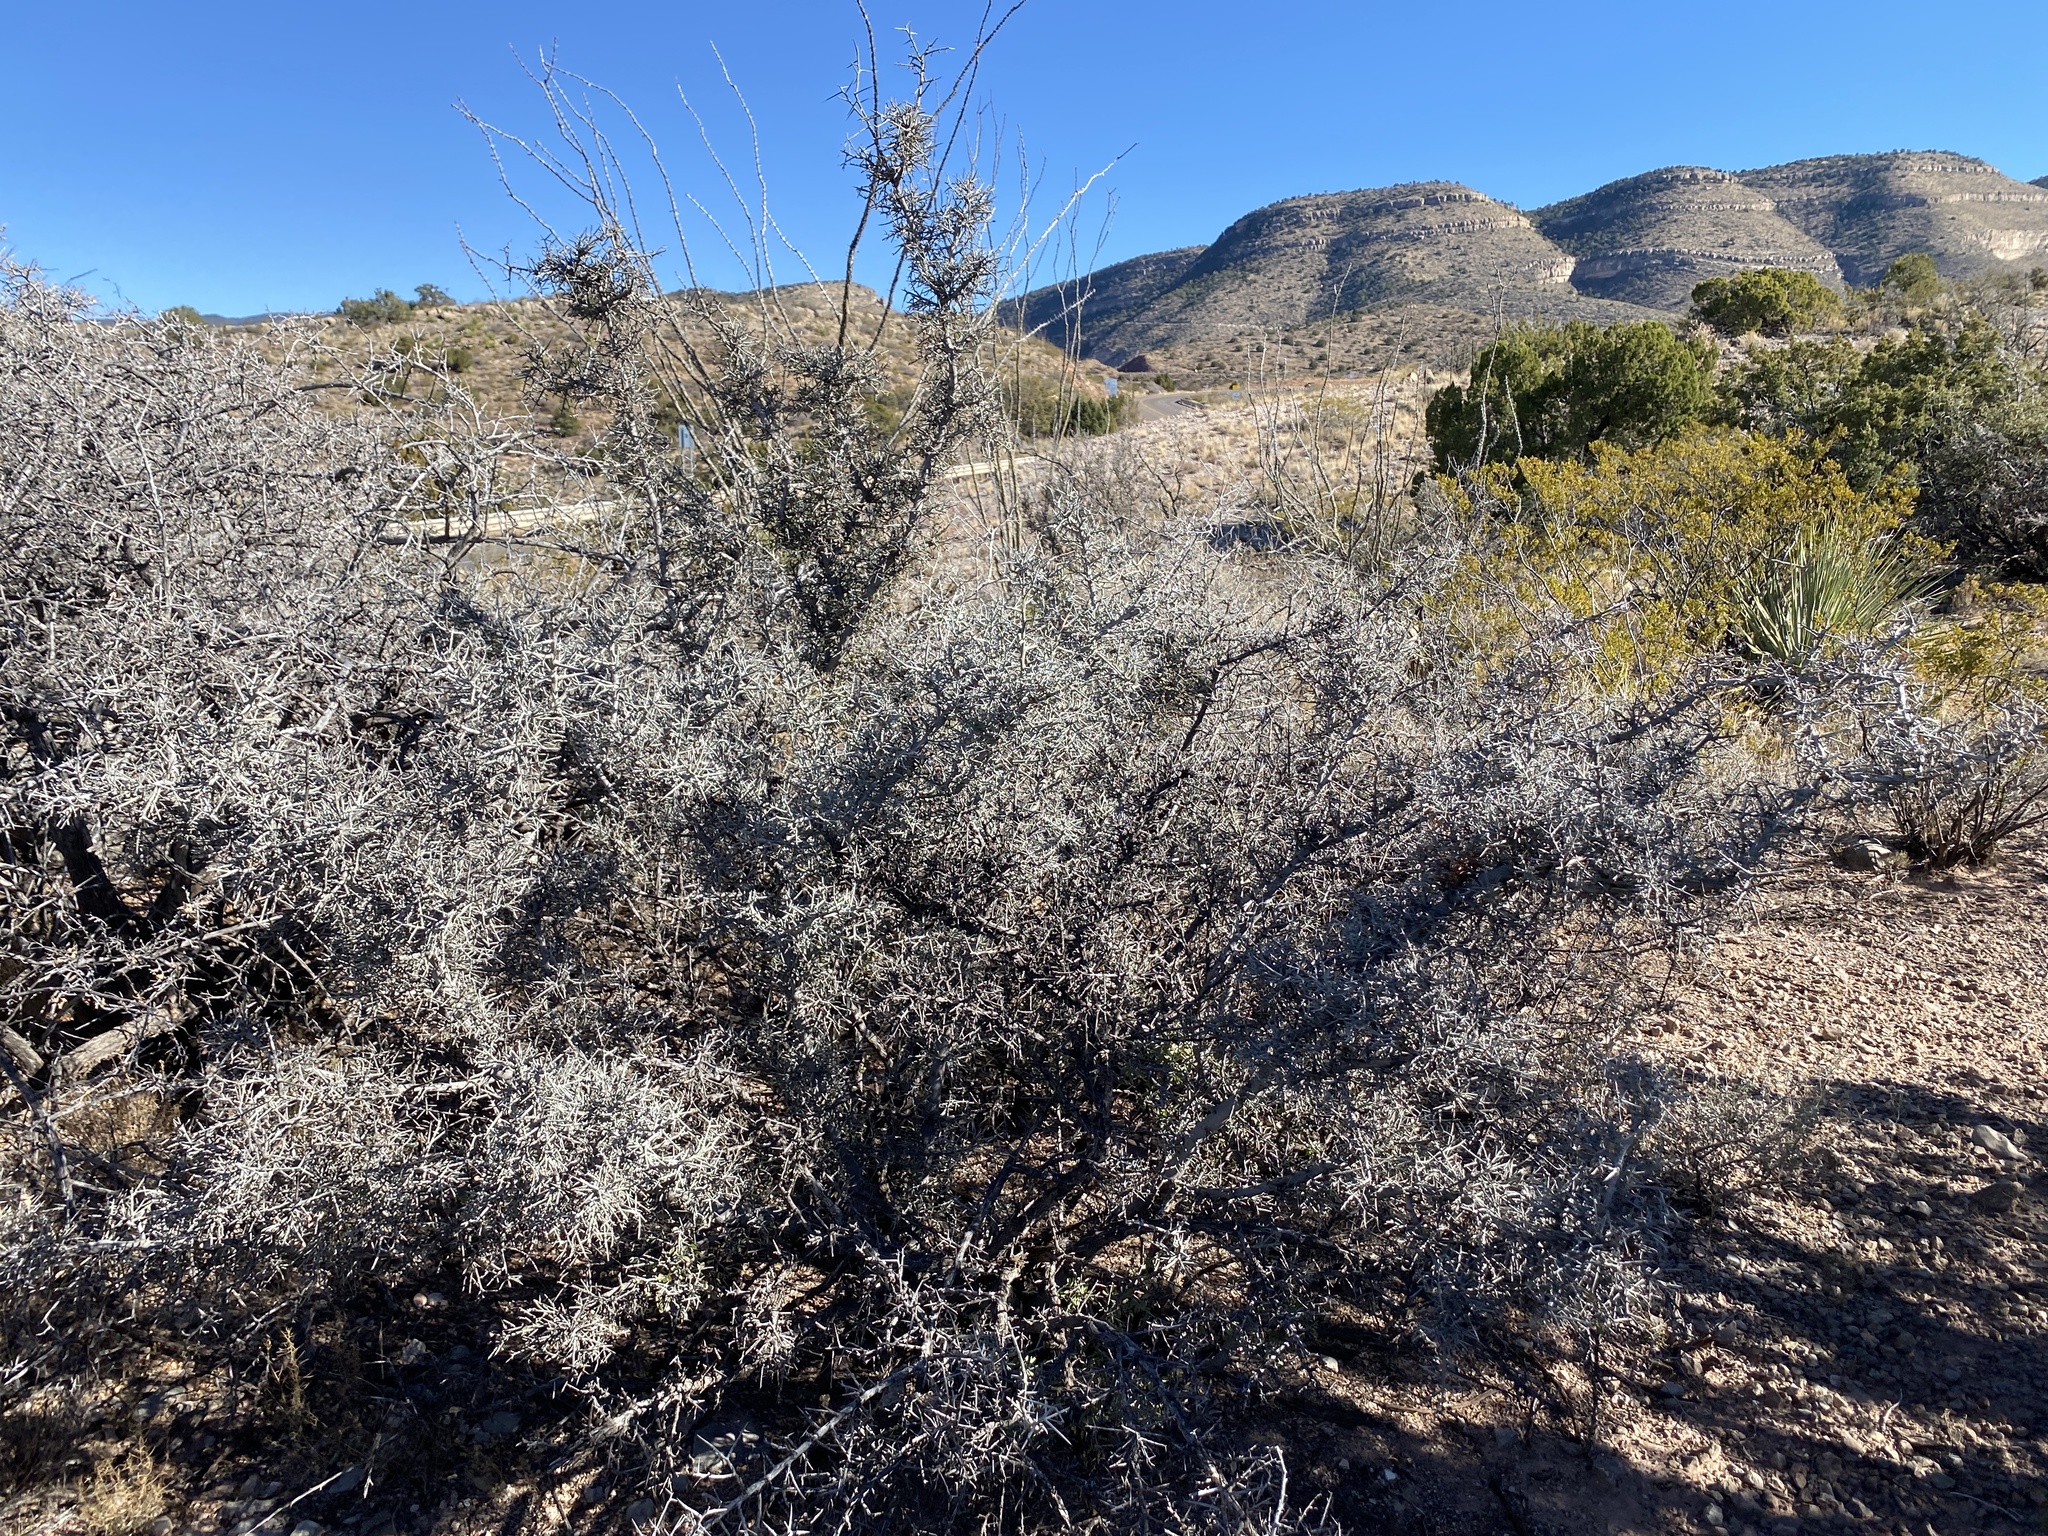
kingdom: Plantae
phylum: Tracheophyta
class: Magnoliopsida
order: Rosales
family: Rhamnaceae
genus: Sarcomphalus
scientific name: Sarcomphalus obtusifolius
